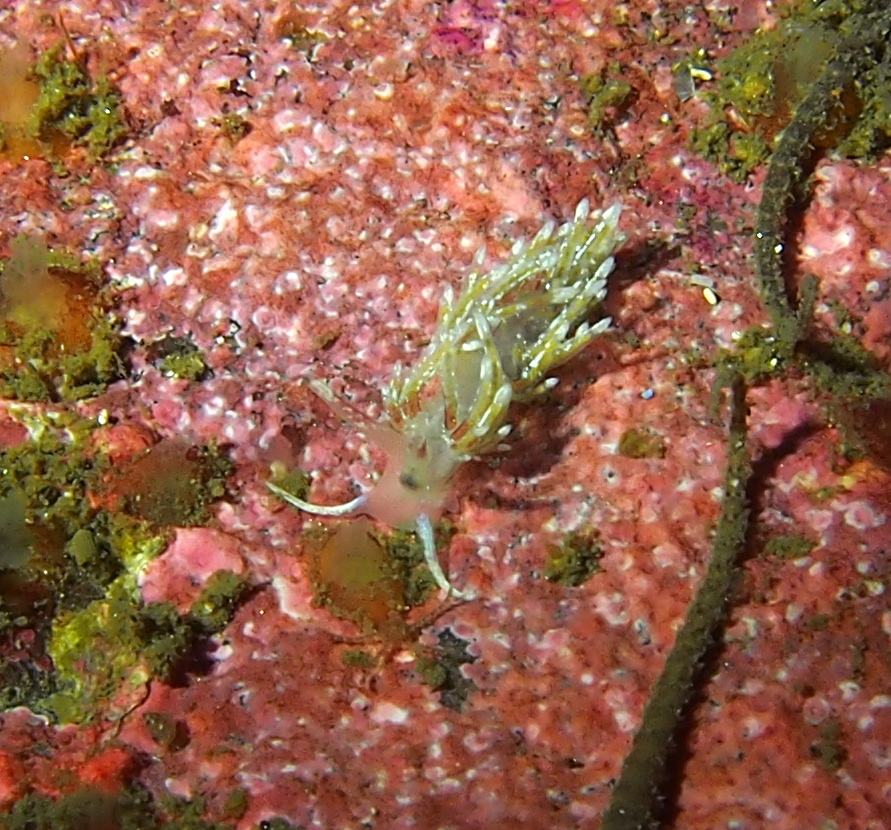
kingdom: Animalia
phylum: Mollusca
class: Gastropoda
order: Nudibranchia
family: Trinchesiidae
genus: Rubramoena
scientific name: Rubramoena rubescens
